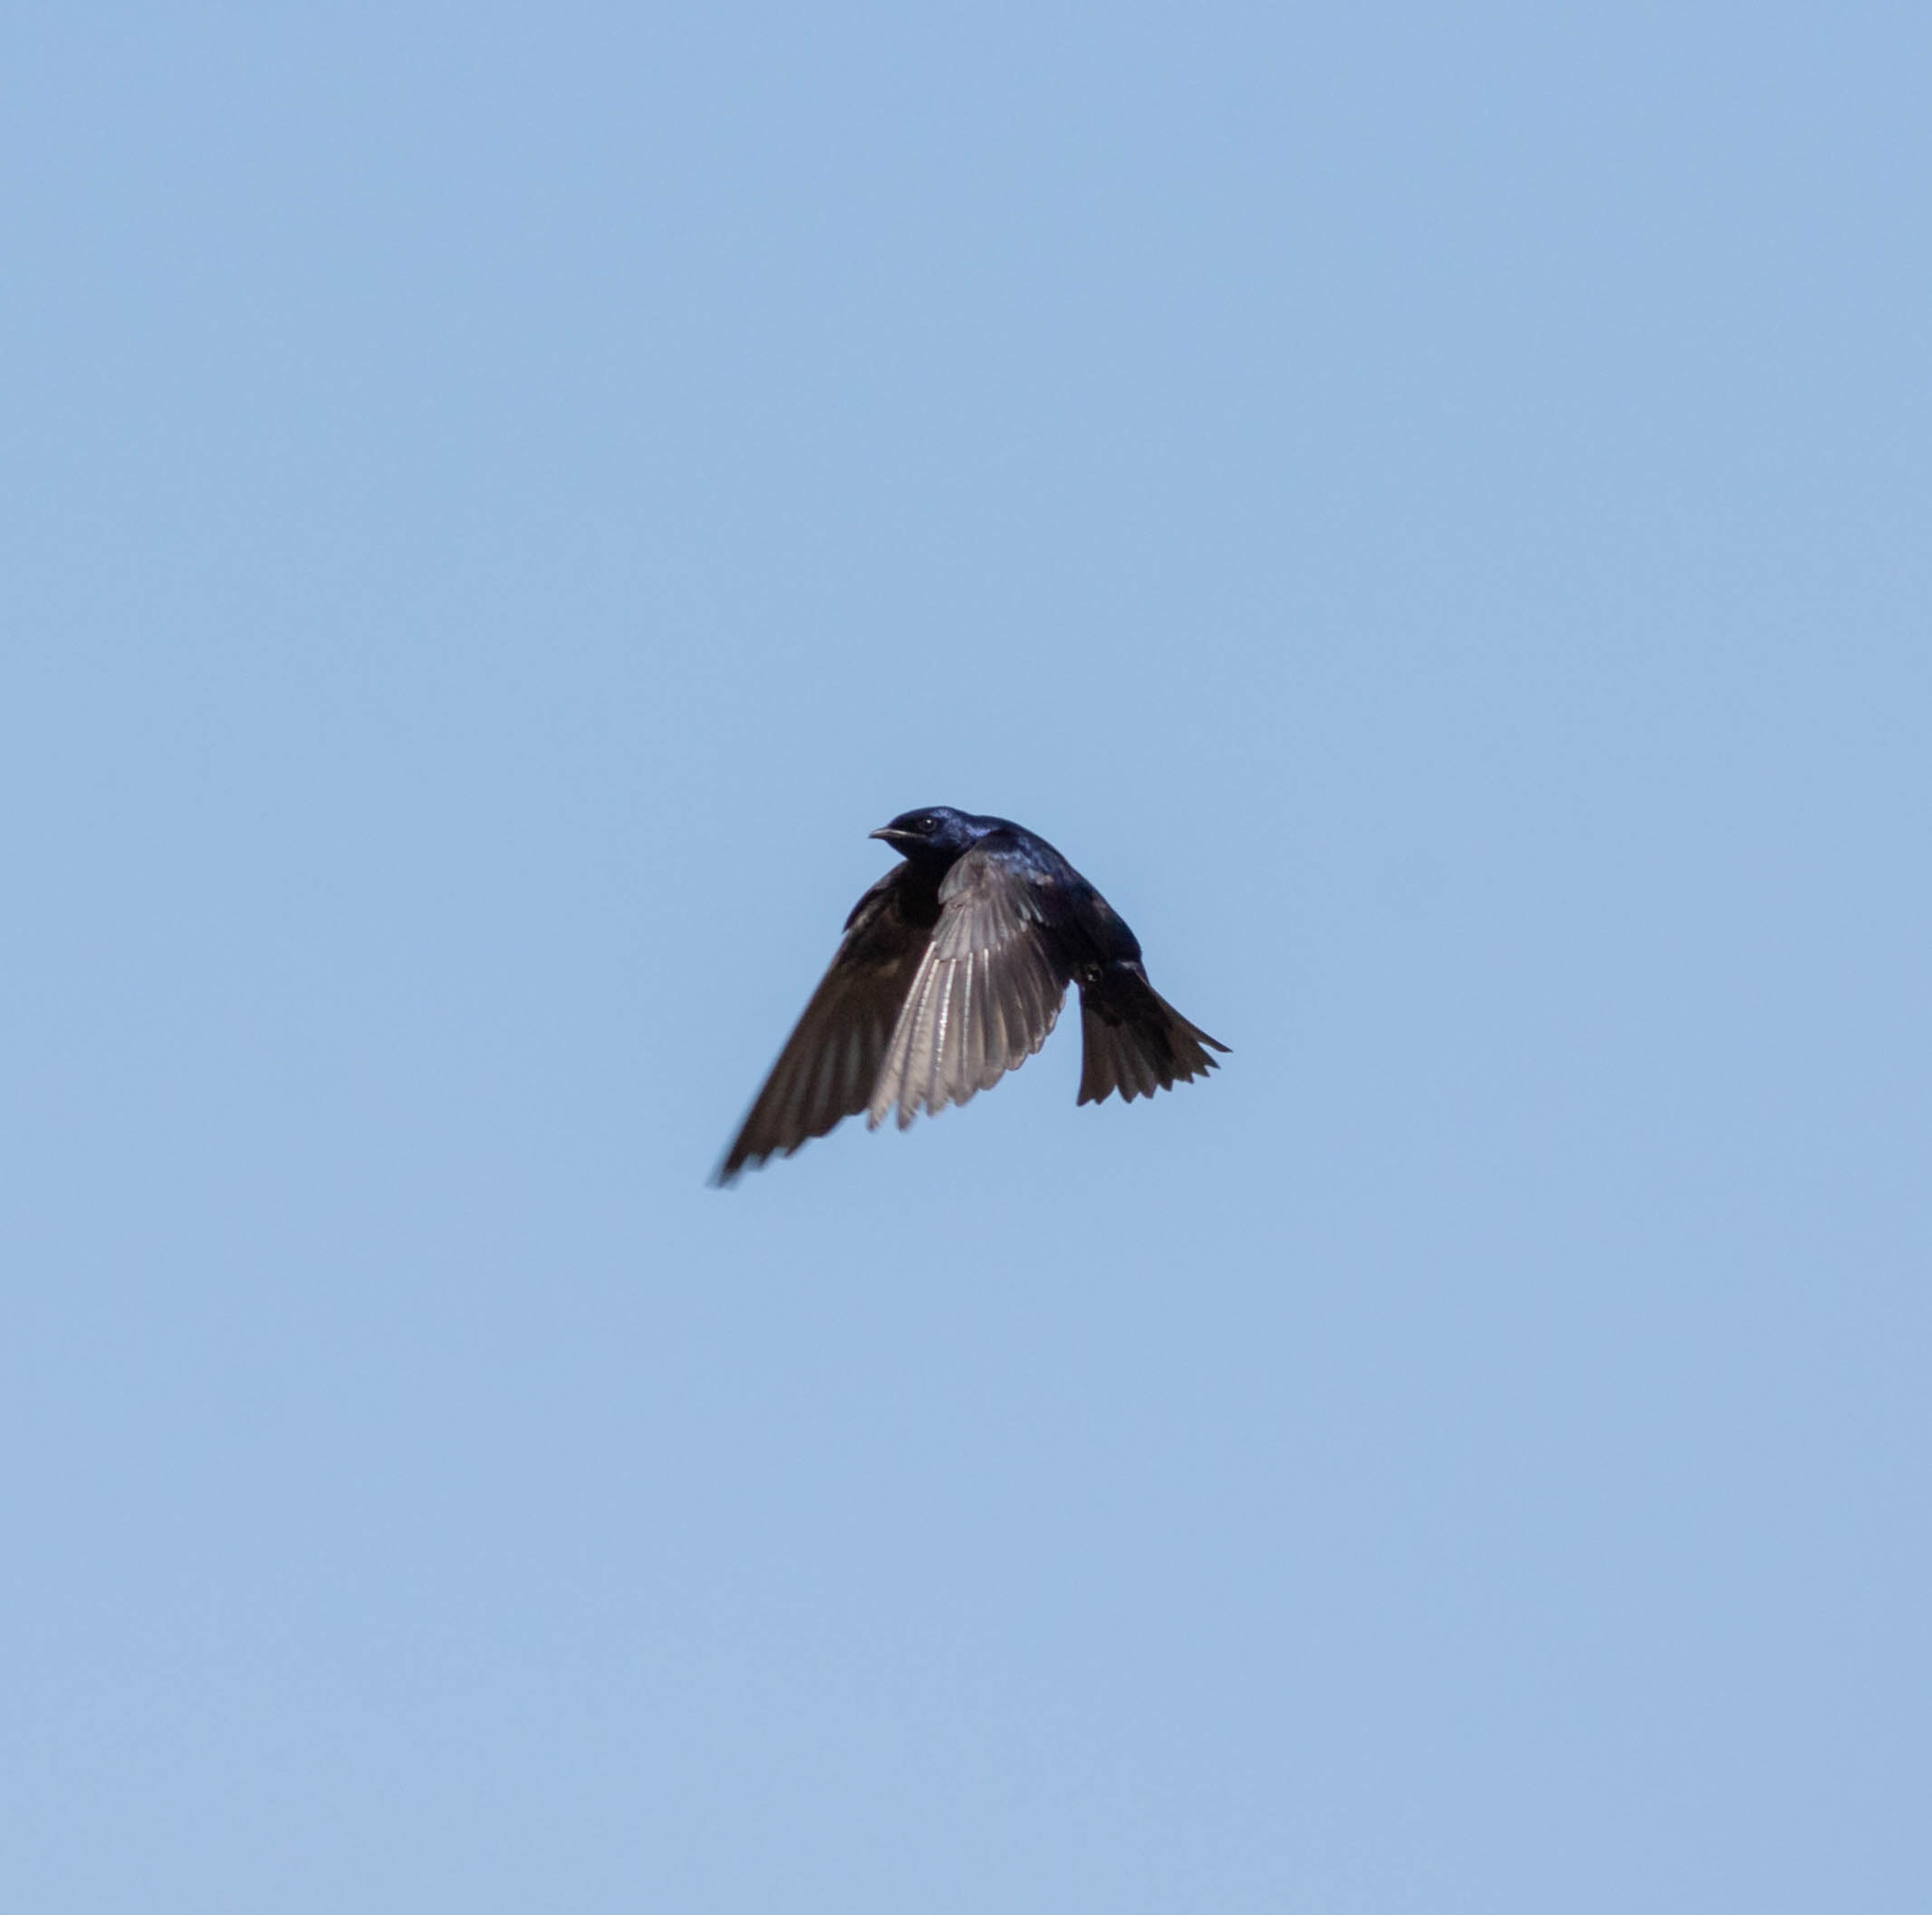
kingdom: Animalia
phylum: Chordata
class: Aves
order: Passeriformes
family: Hirundinidae
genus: Progne
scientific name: Progne subis
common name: Purple martin
